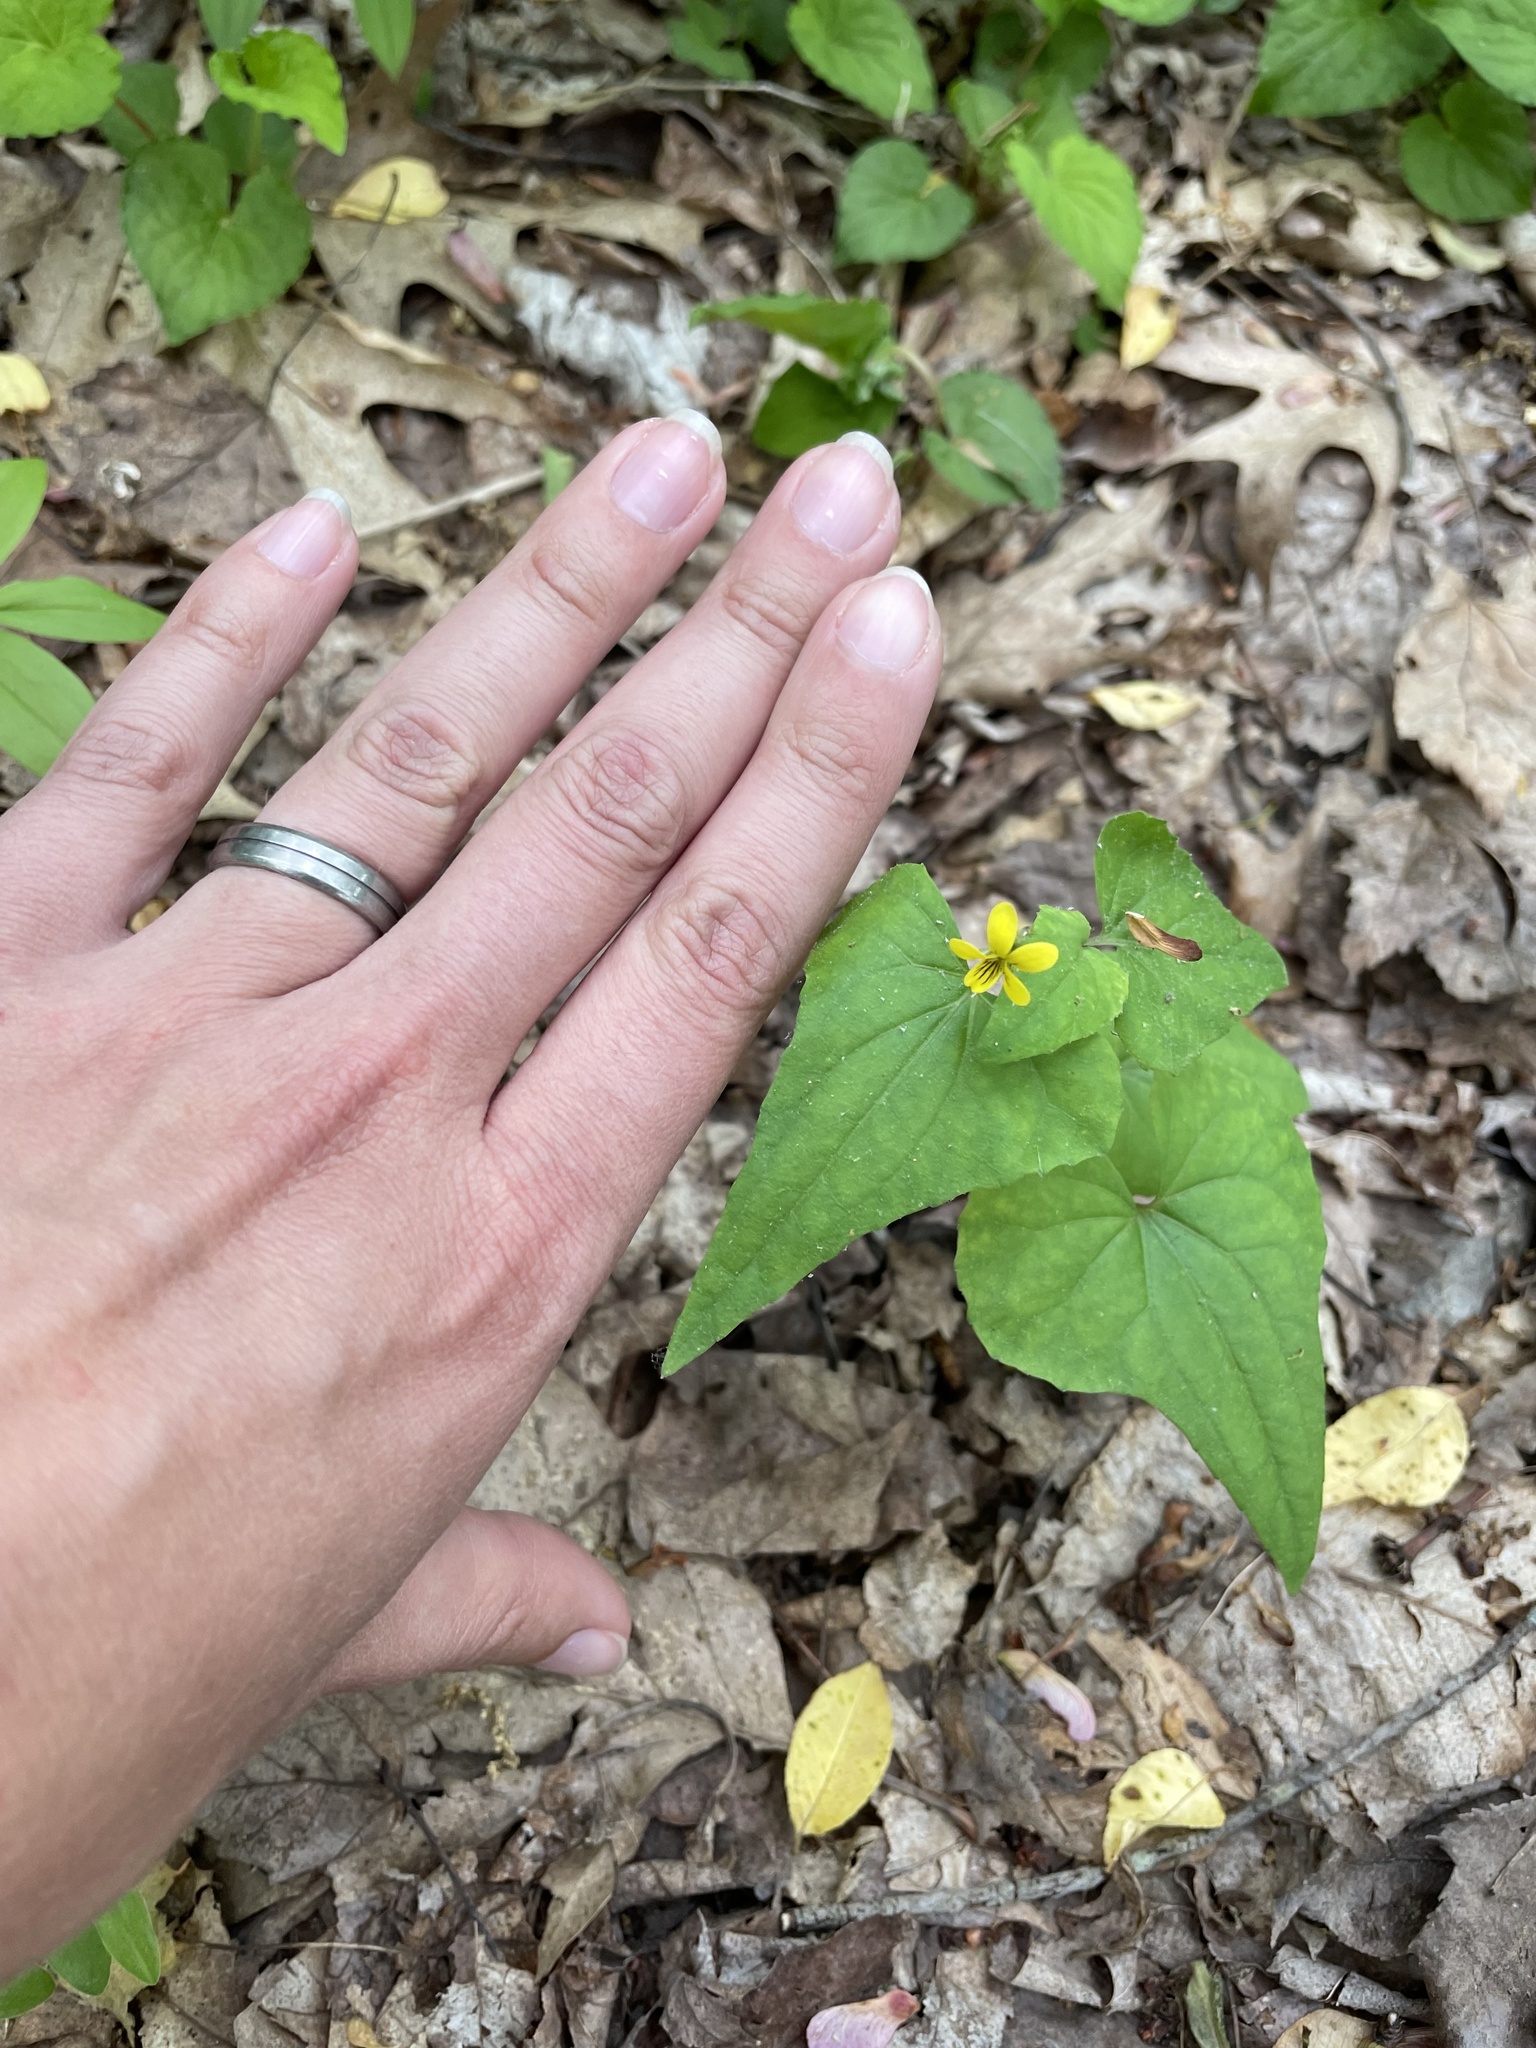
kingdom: Plantae
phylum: Tracheophyta
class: Magnoliopsida
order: Malpighiales
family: Violaceae
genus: Viola
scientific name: Viola hastata
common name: Spear-leaf violet
